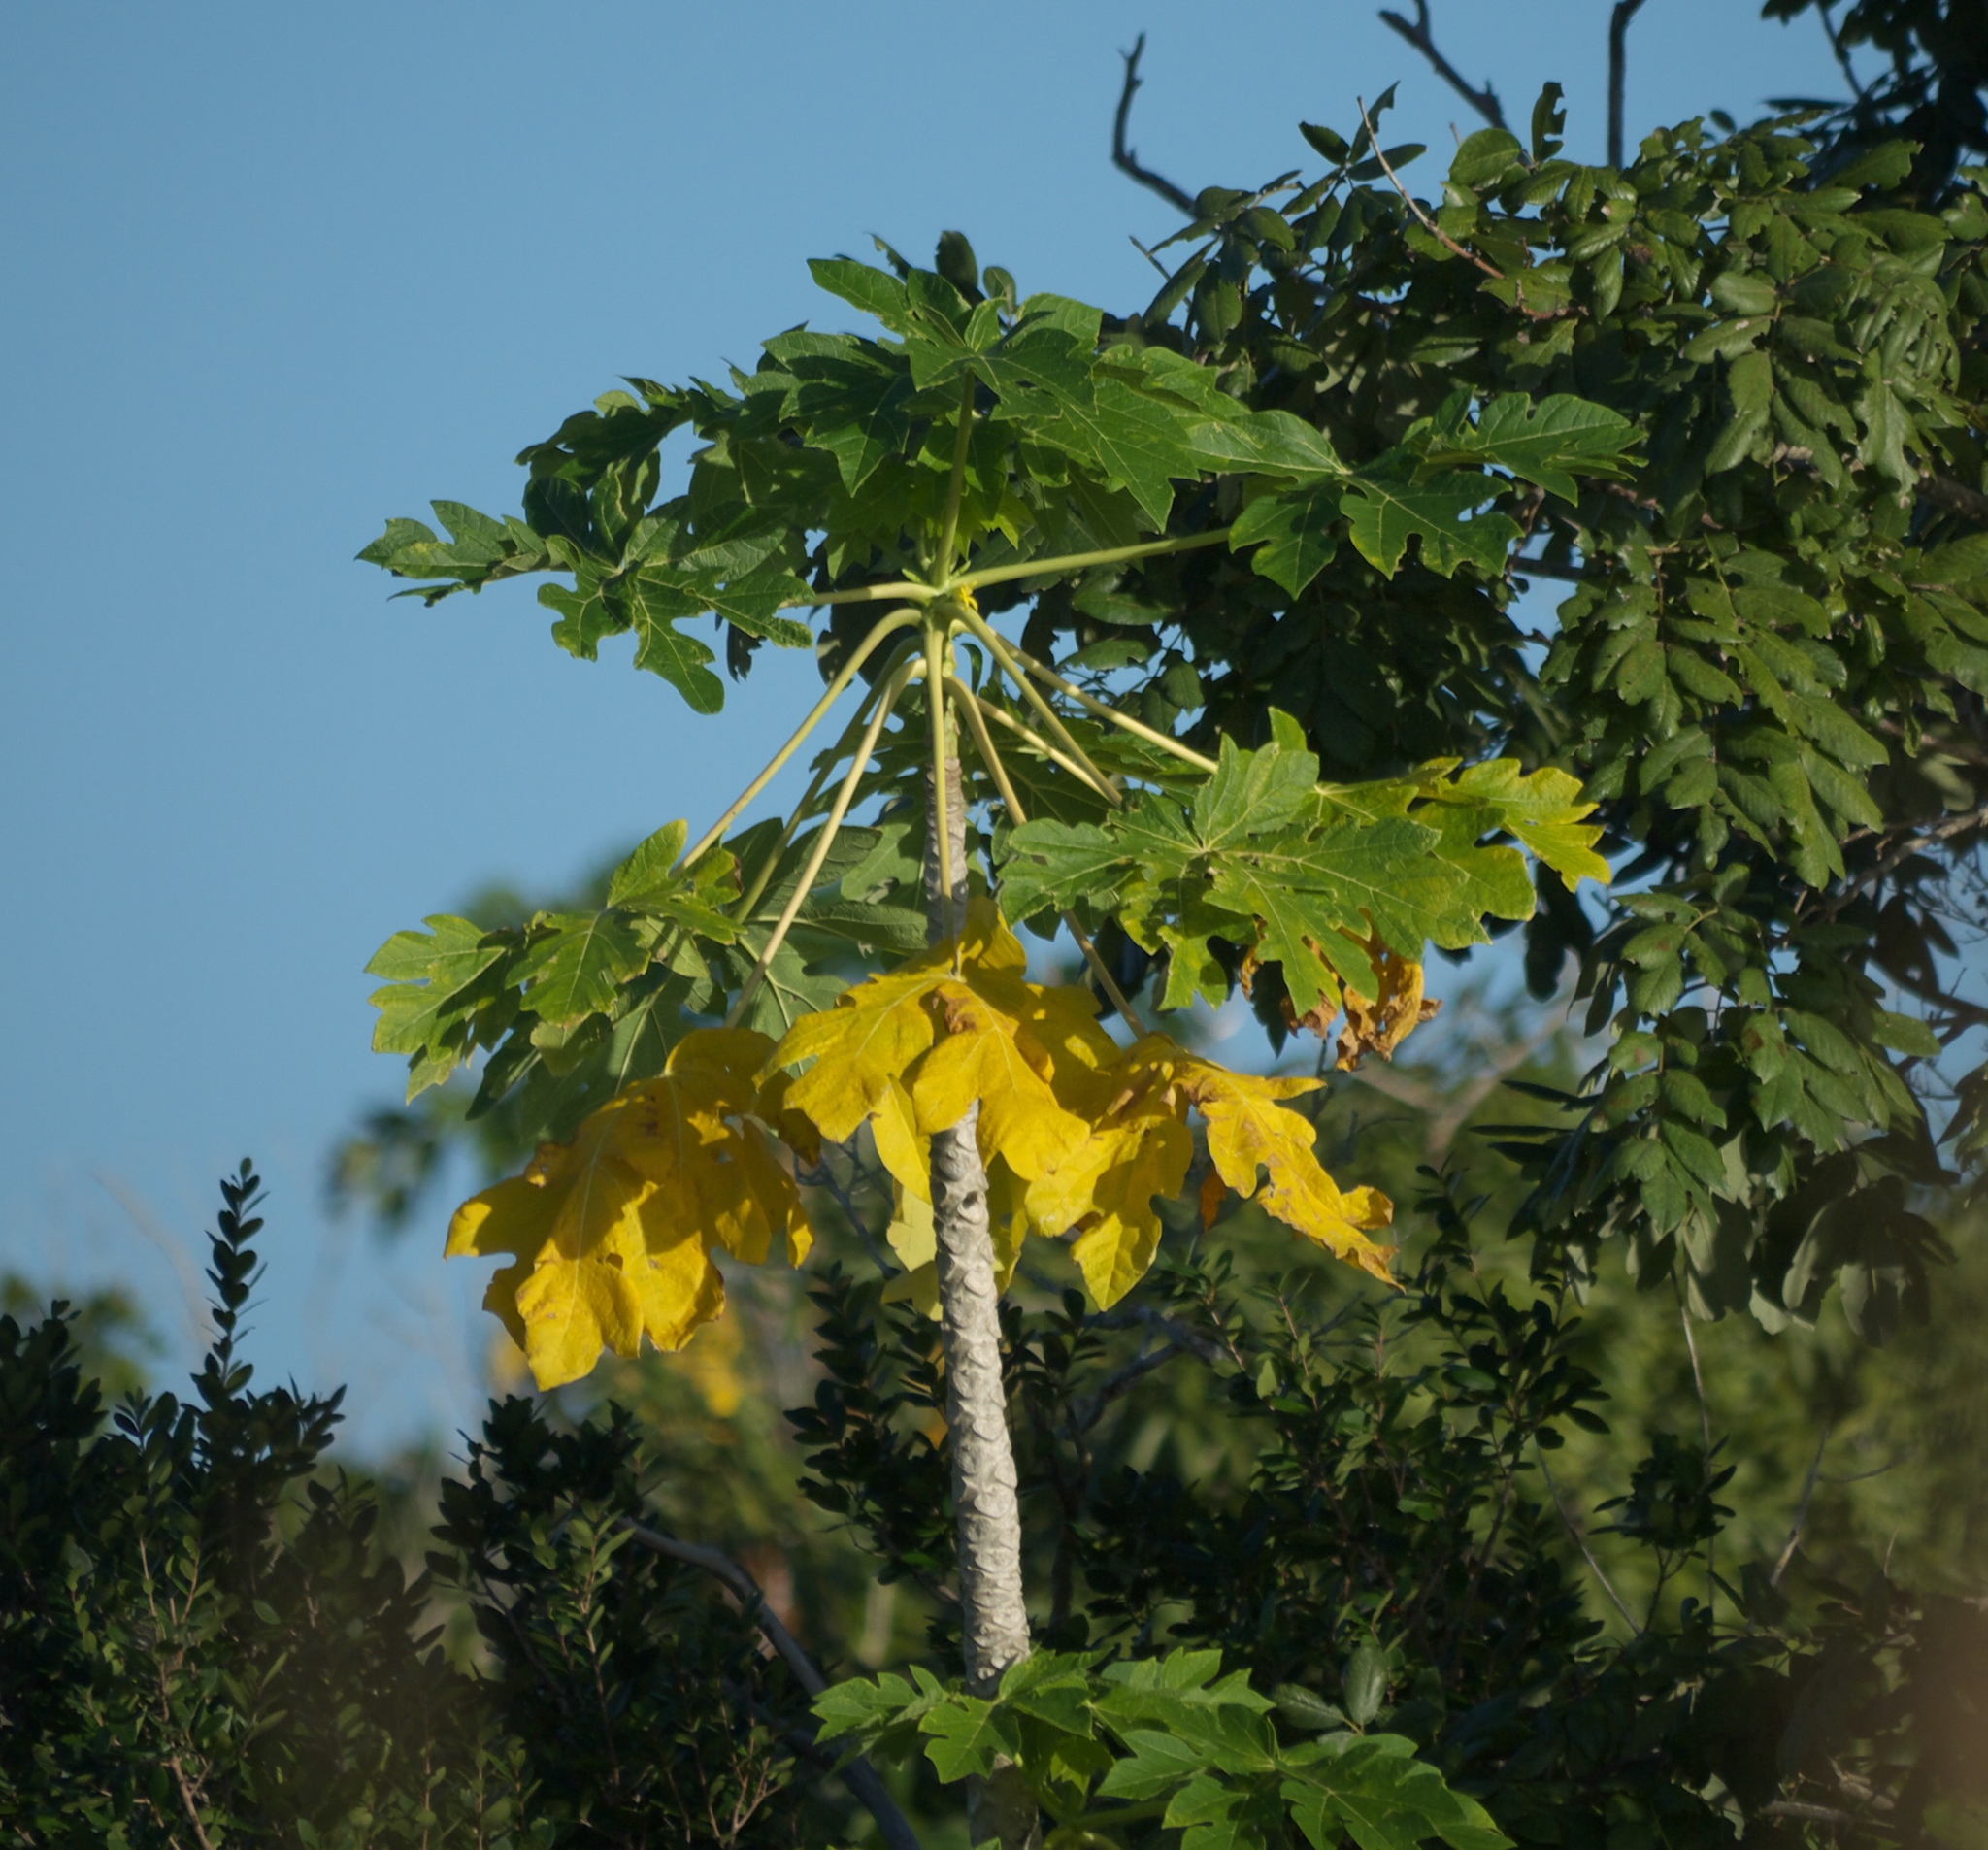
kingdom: Plantae
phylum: Tracheophyta
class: Magnoliopsida
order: Brassicales
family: Caricaceae
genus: Carica
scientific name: Carica papaya
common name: Papaya
